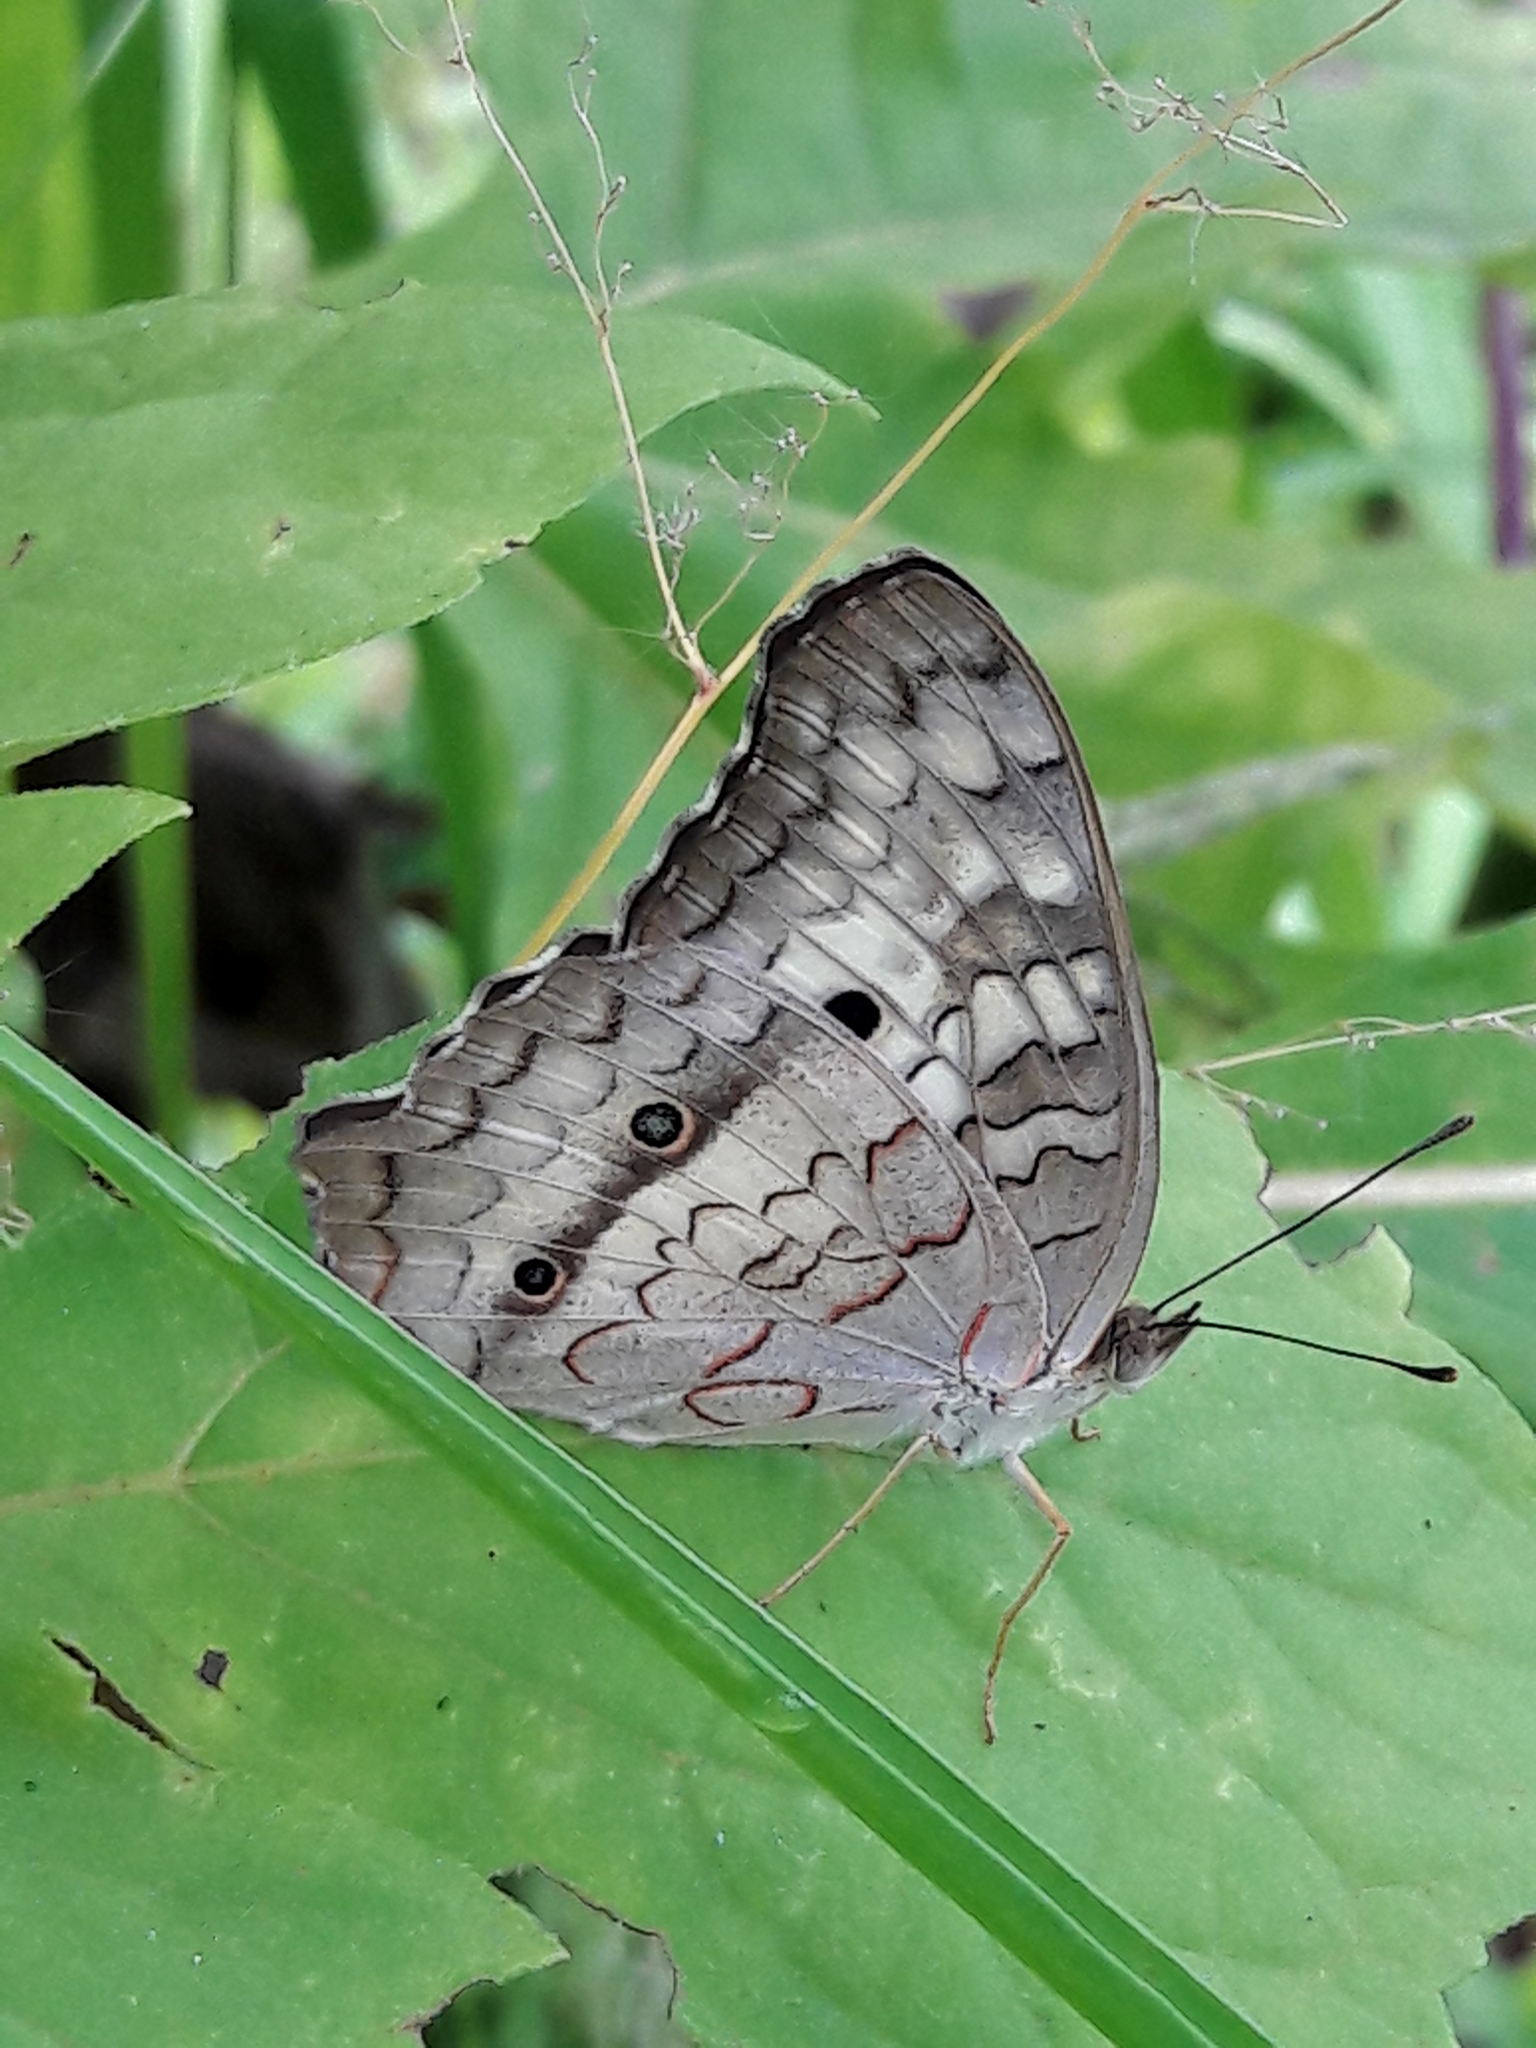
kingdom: Animalia
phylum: Arthropoda
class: Insecta
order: Lepidoptera
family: Nymphalidae
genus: Anartia
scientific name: Anartia jatrophae
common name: White peacock
